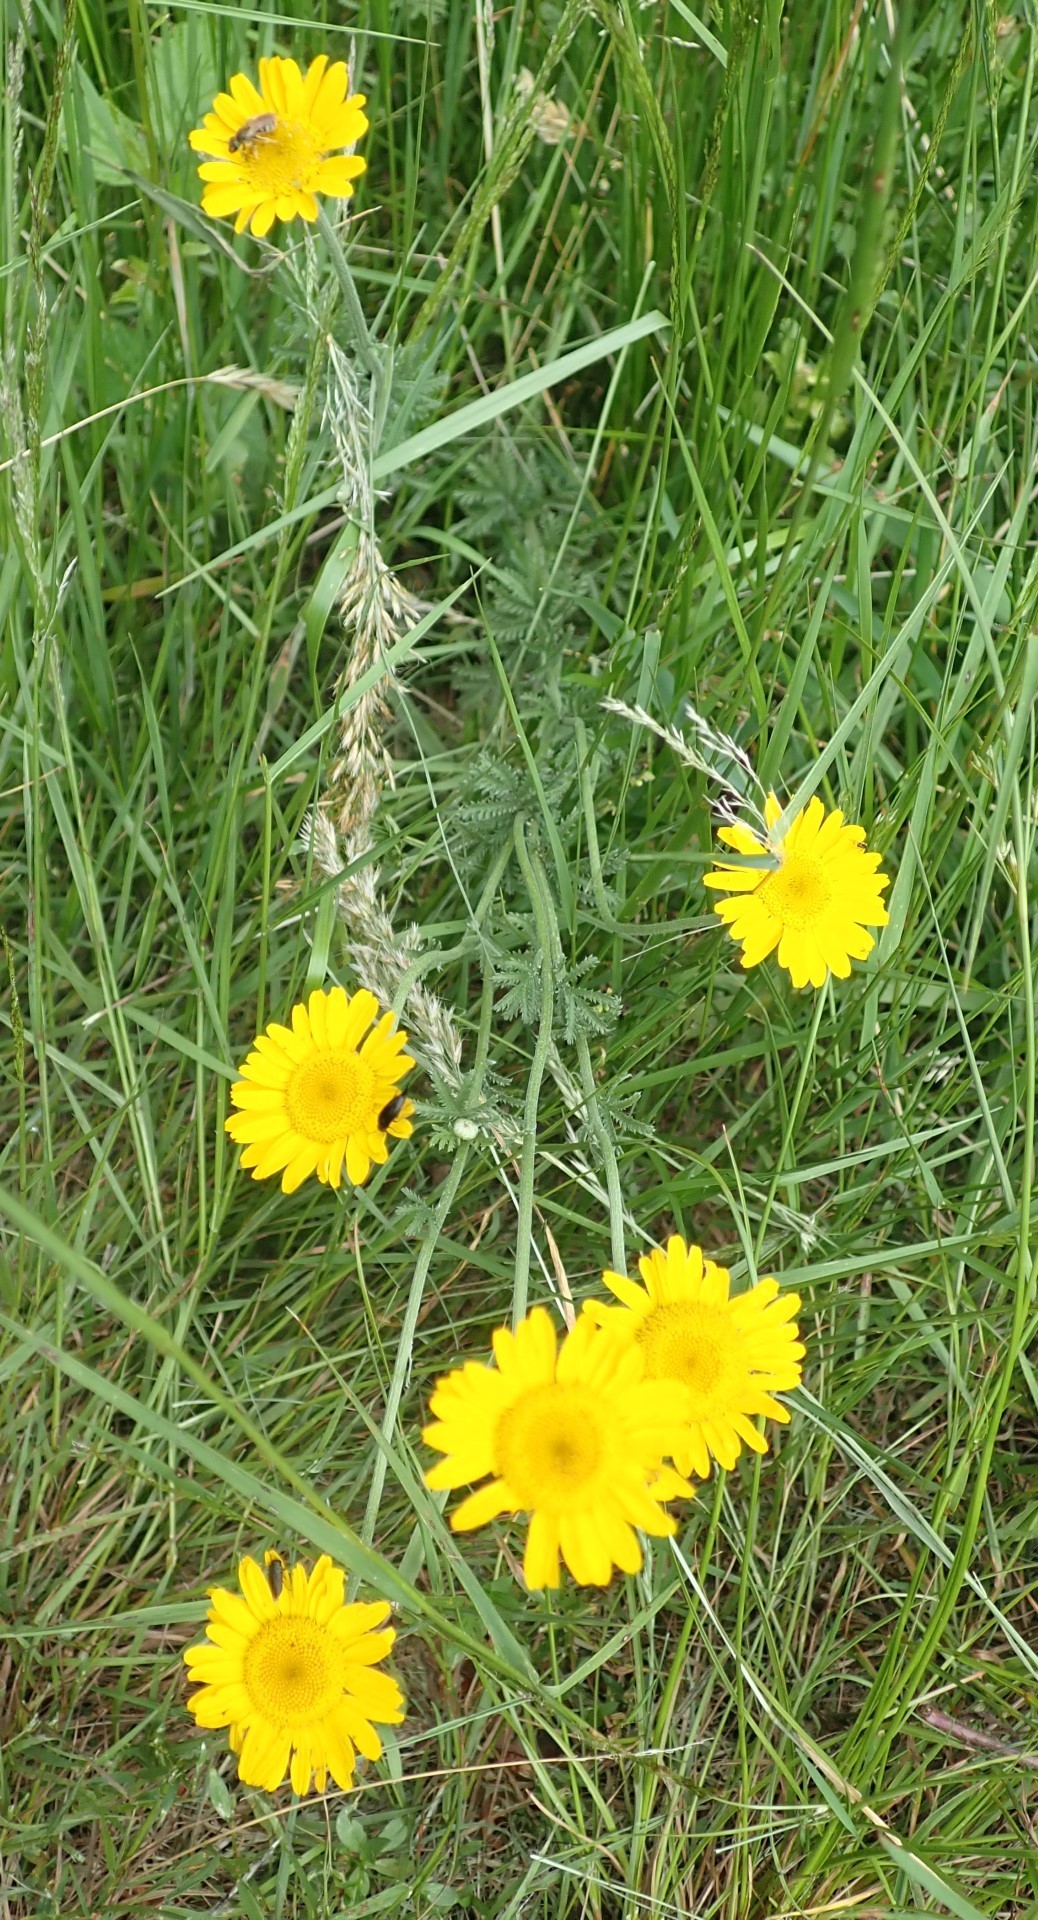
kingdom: Plantae
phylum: Tracheophyta
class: Magnoliopsida
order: Asterales
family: Asteraceae
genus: Cota
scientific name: Cota tinctoria
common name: Golden chamomile
